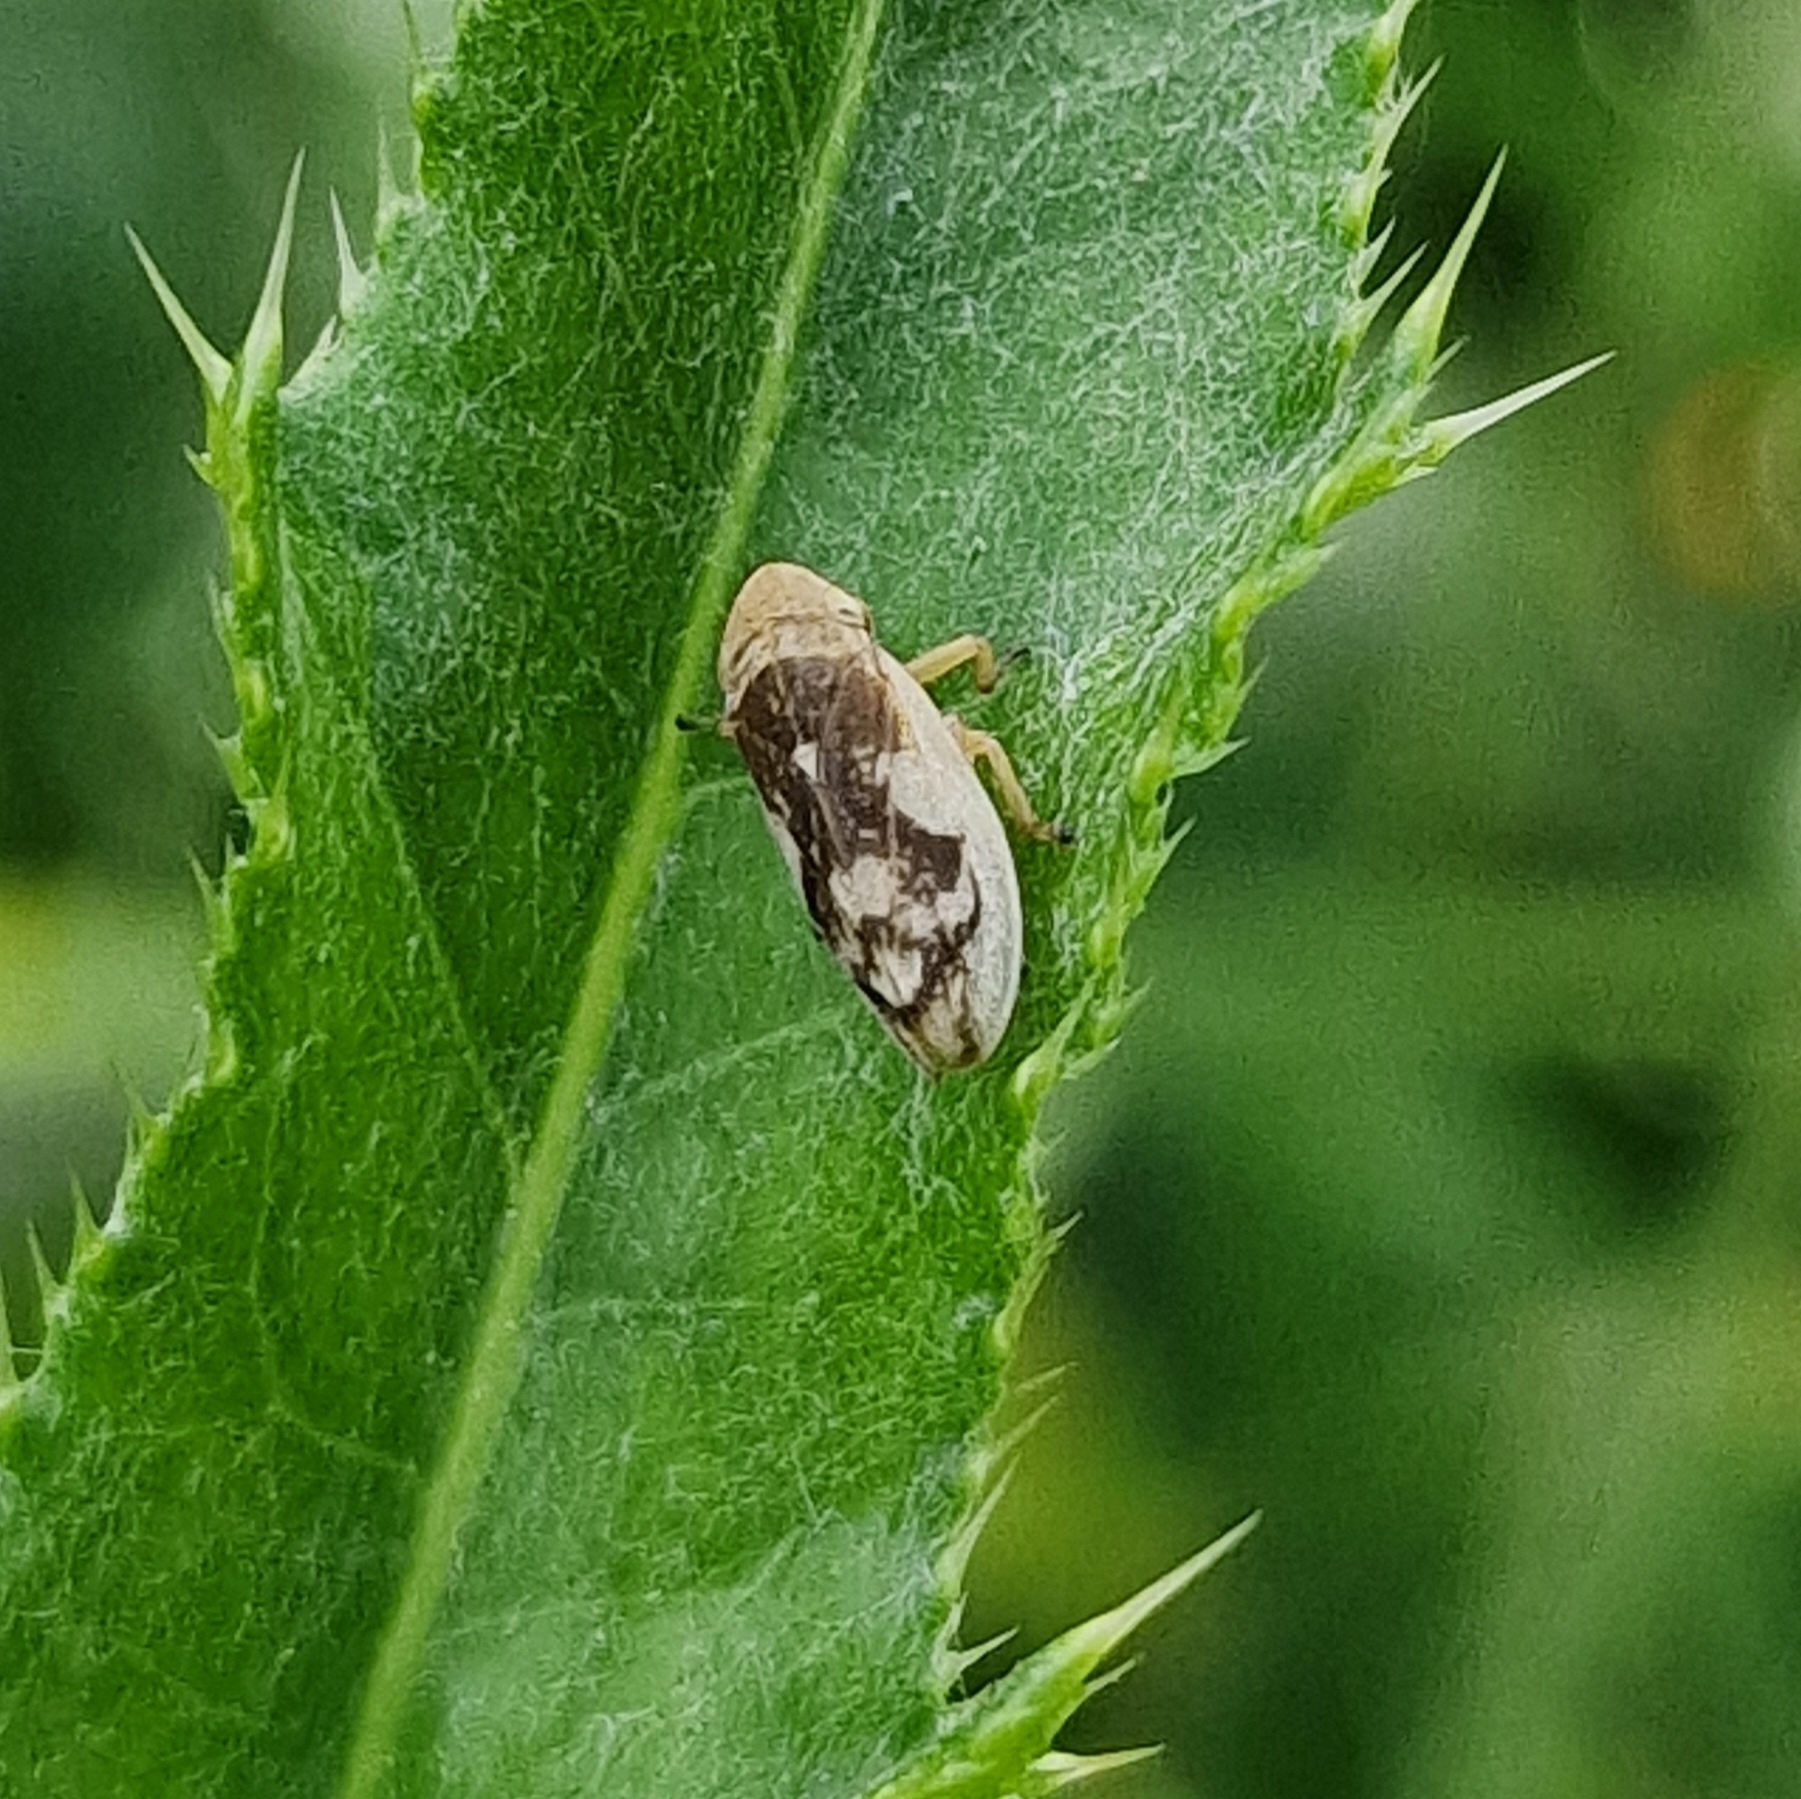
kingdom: Animalia
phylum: Arthropoda
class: Insecta
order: Hemiptera
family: Aphrophoridae
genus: Philaenus
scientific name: Philaenus spumarius
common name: Meadow spittlebug
